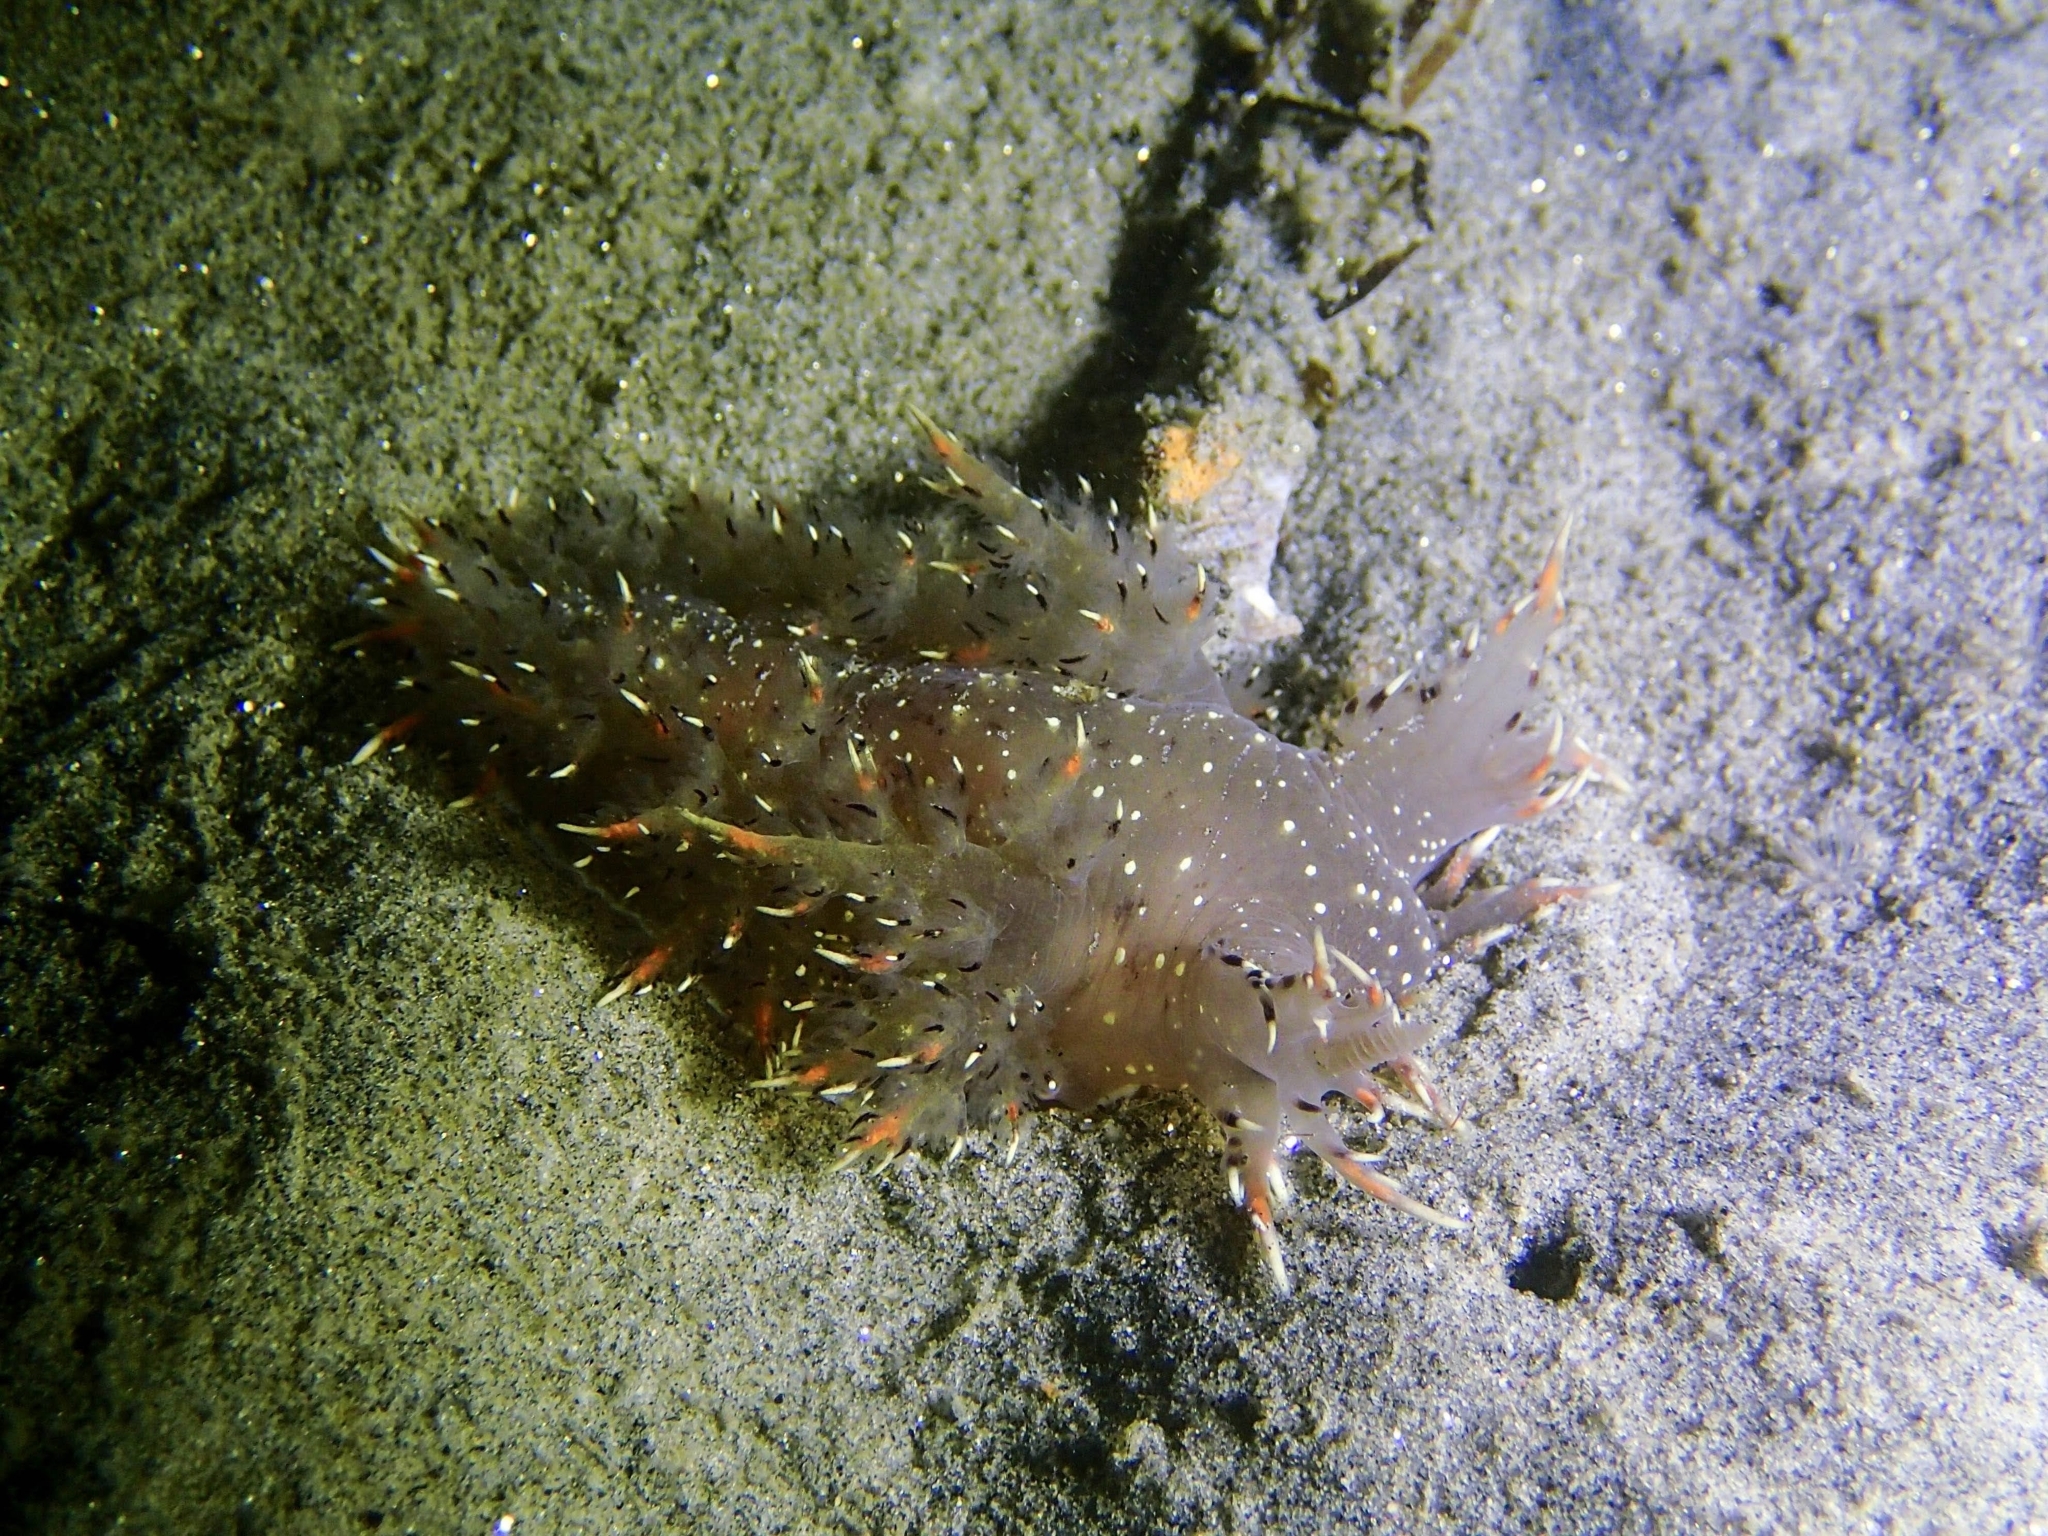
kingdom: Animalia
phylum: Mollusca
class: Gastropoda
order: Nudibranchia
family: Dendronotidae
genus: Dendronotus
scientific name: Dendronotus iris
